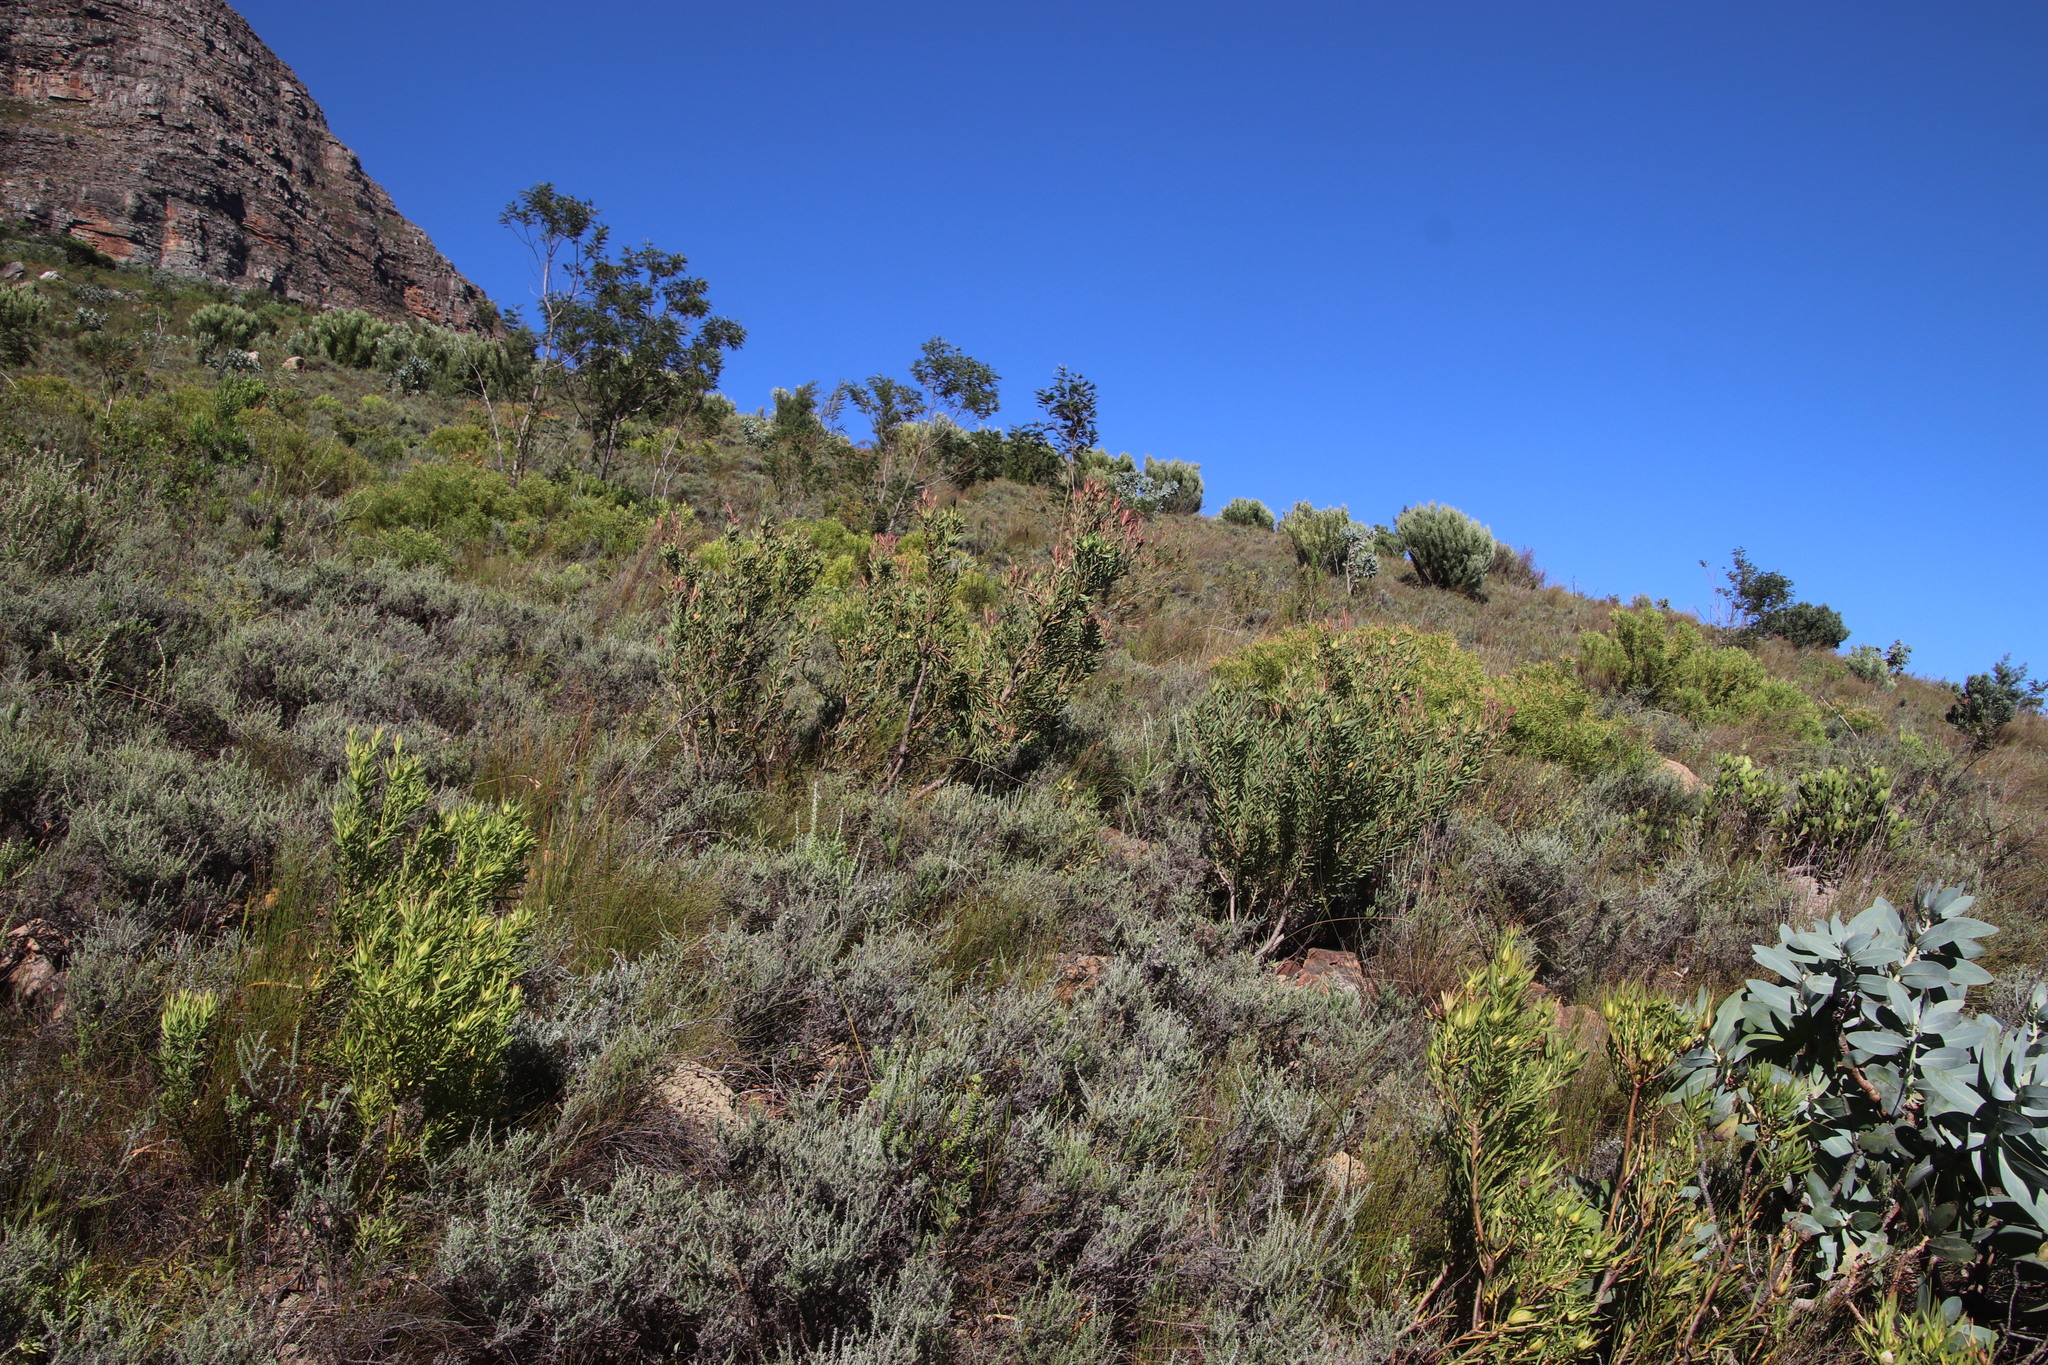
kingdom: Plantae
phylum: Tracheophyta
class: Magnoliopsida
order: Proteales
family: Proteaceae
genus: Leucadendron
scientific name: Leucadendron salignum
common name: Common sunshine conebush
